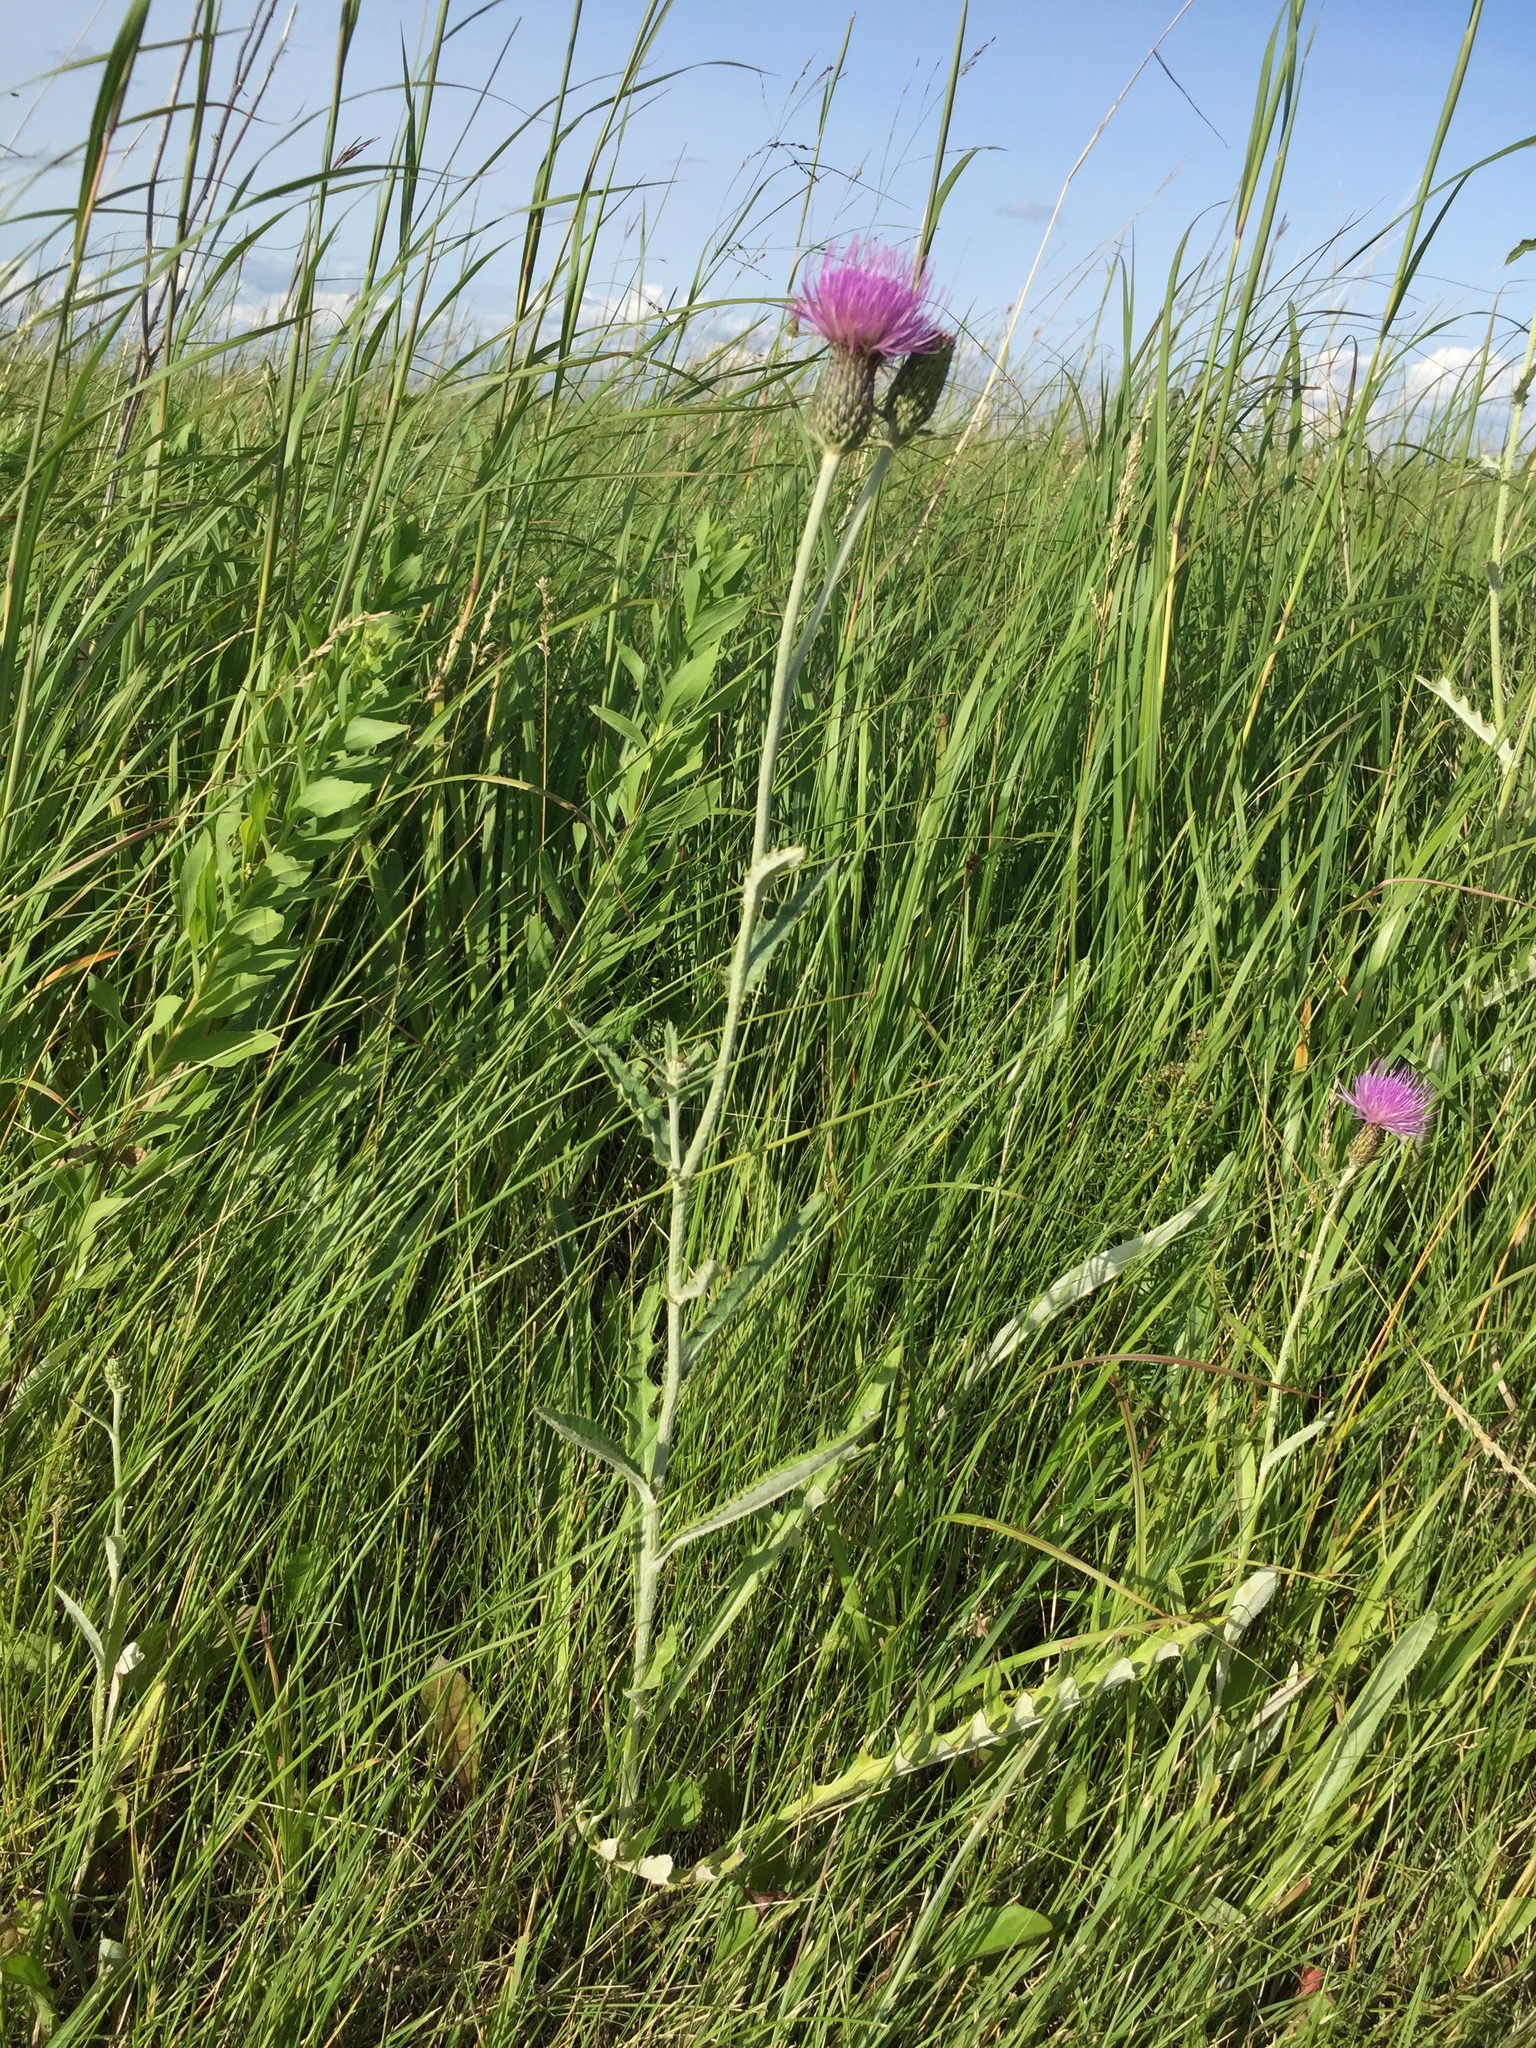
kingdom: Plantae
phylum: Tracheophyta
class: Magnoliopsida
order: Asterales
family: Asteraceae
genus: Cirsium
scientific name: Cirsium flodmanii
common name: Flodman's thistle
